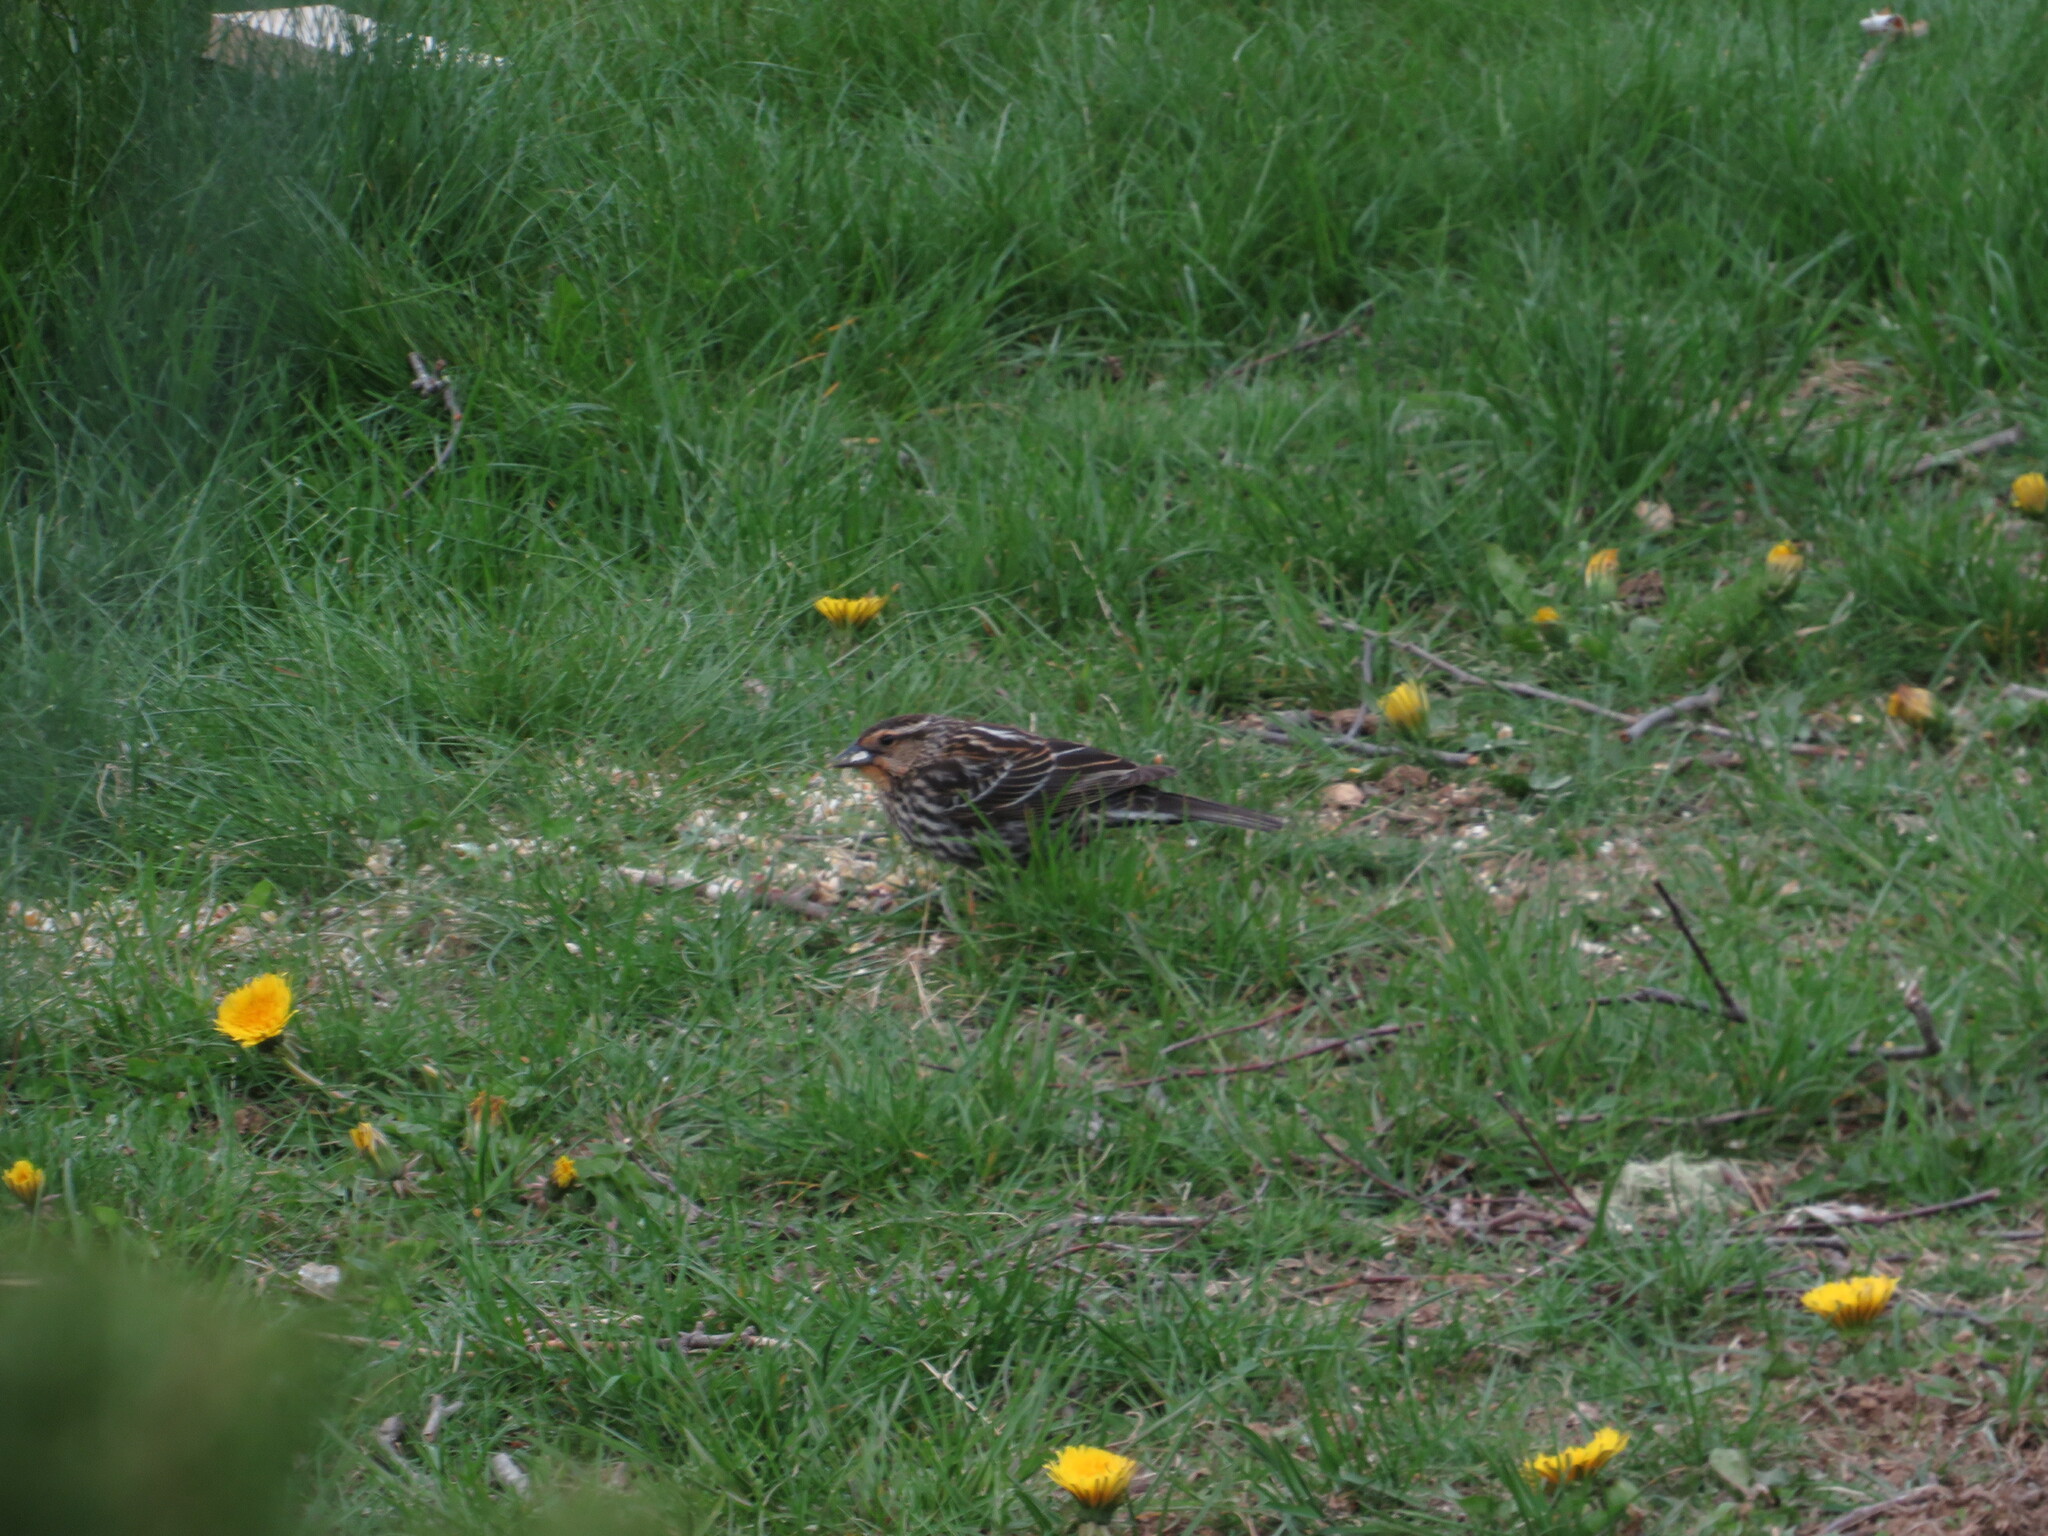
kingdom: Animalia
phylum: Chordata
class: Aves
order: Passeriformes
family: Icteridae
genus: Agelaius
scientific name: Agelaius phoeniceus
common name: Red-winged blackbird
